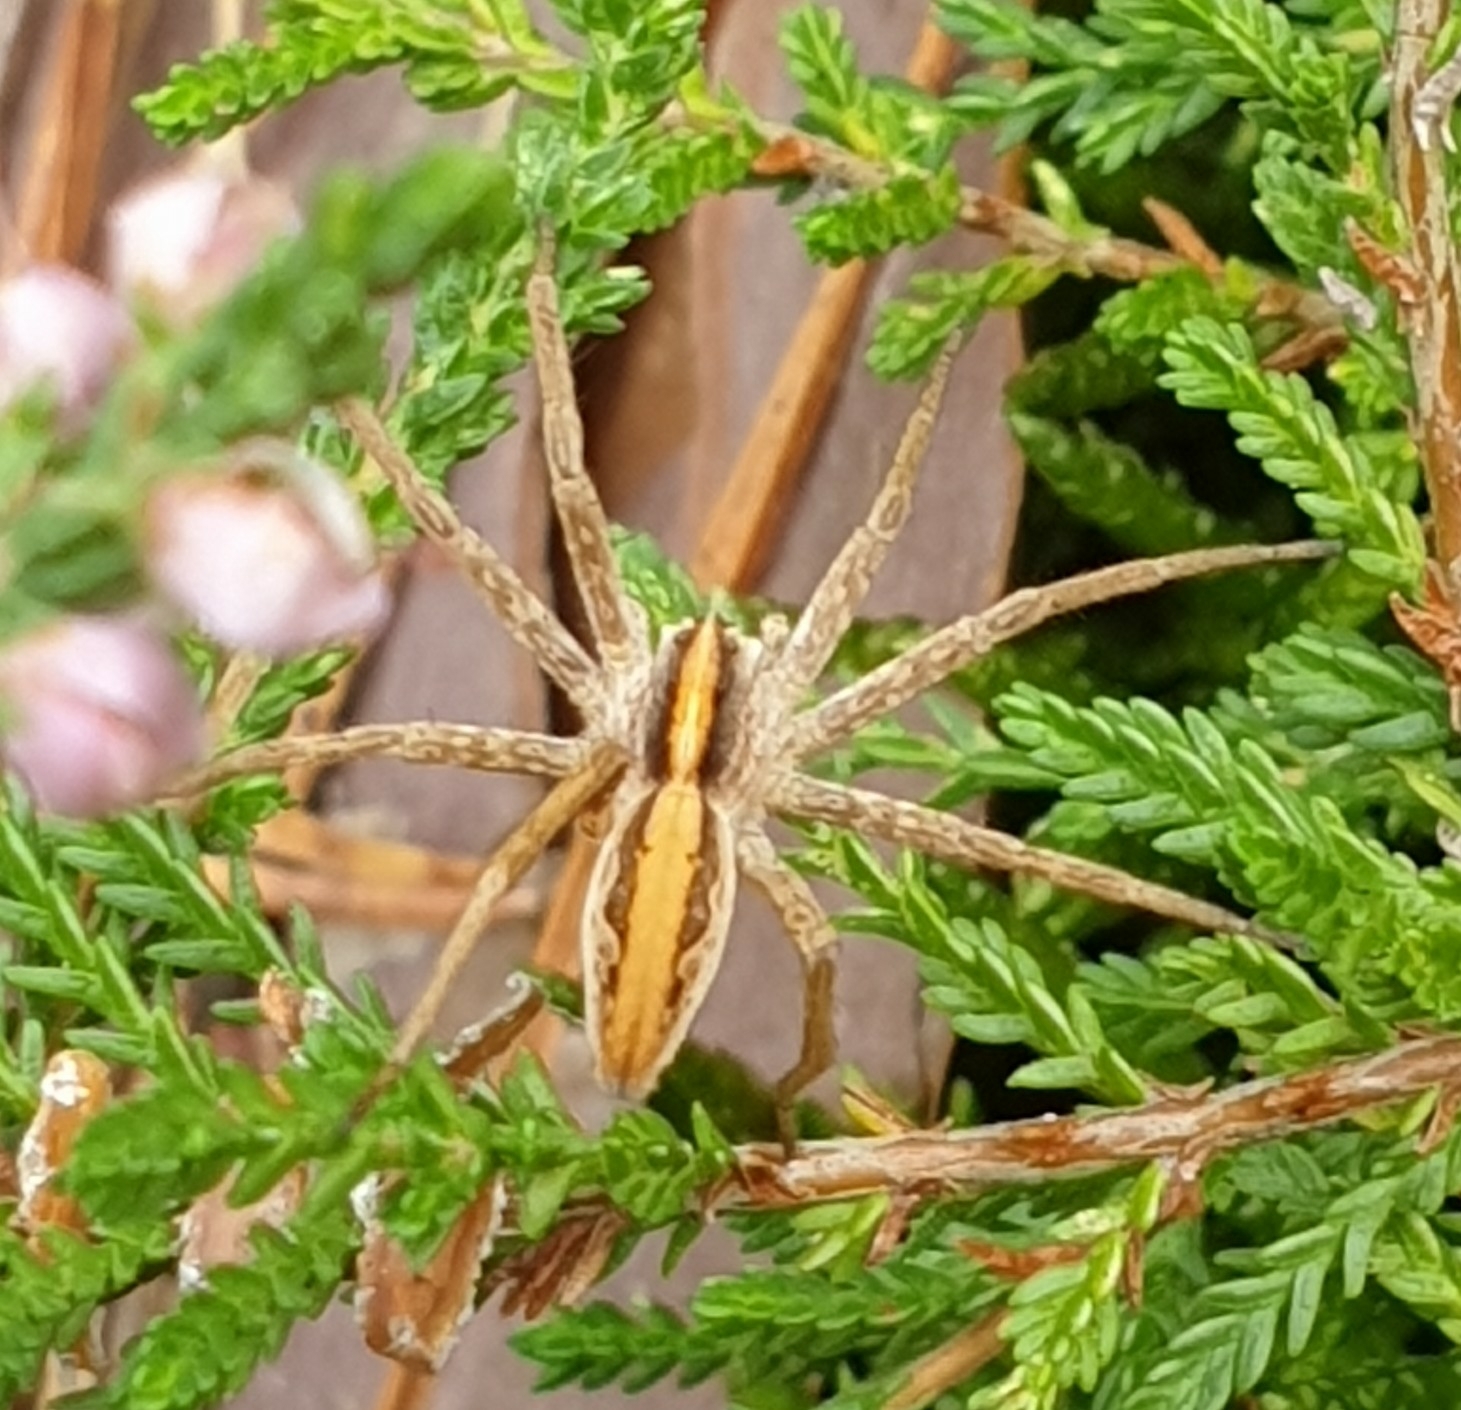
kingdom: Animalia
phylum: Arthropoda
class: Arachnida
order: Araneae
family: Pisauridae
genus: Pisaura
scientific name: Pisaura mirabilis
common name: Tent spider
